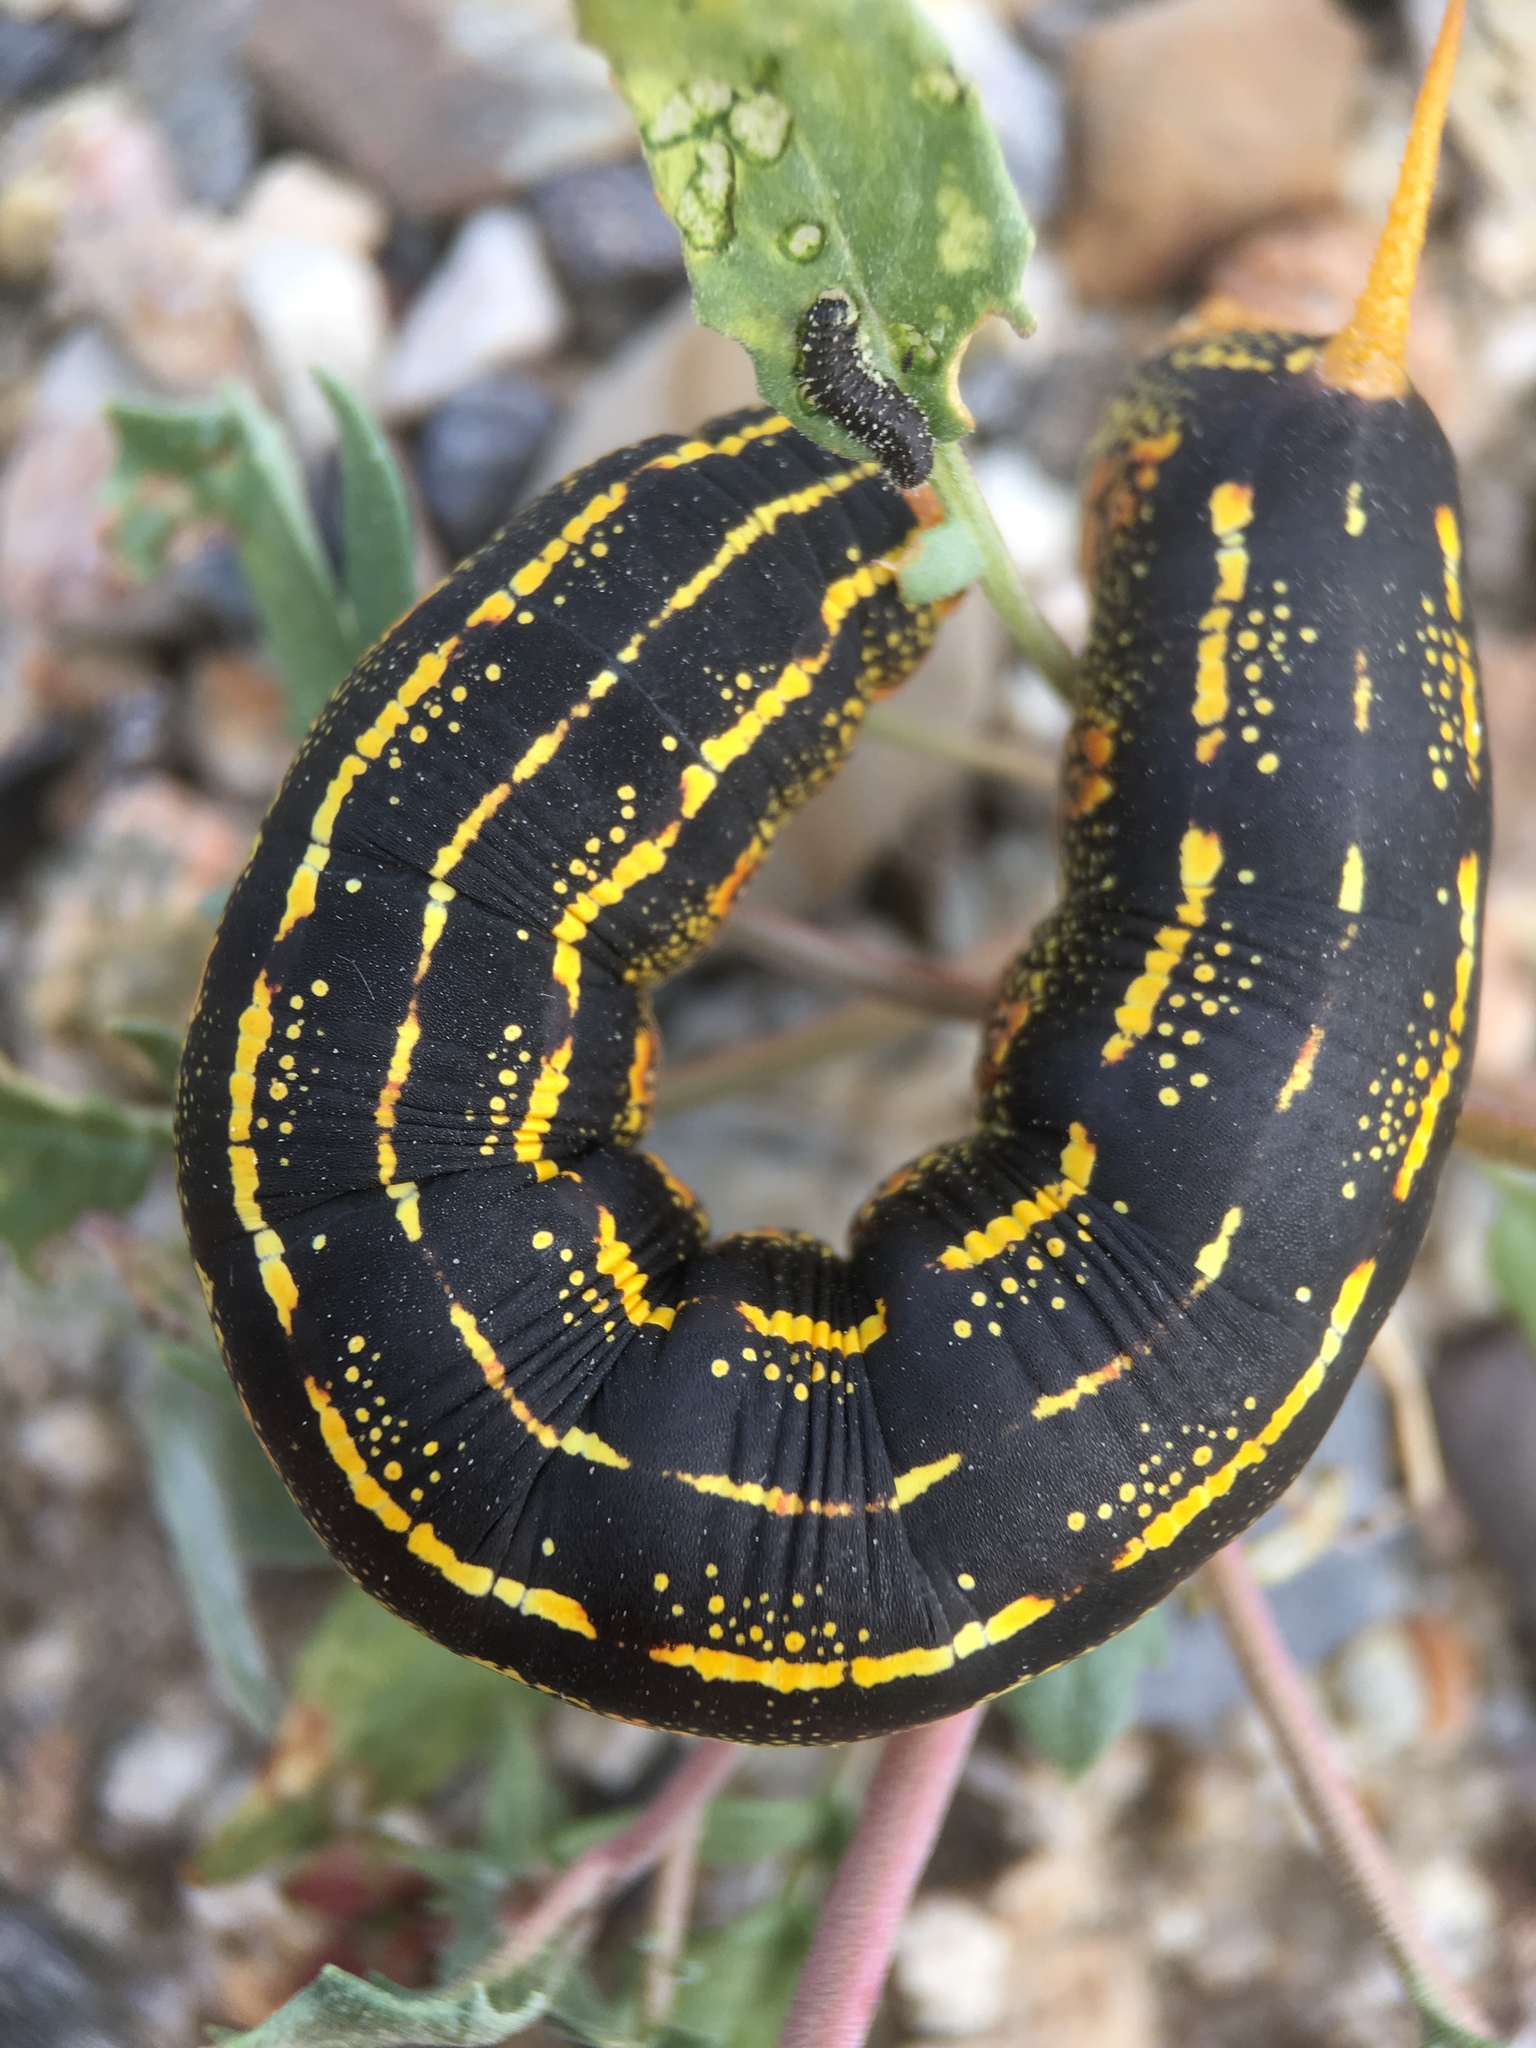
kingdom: Animalia
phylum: Arthropoda
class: Insecta
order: Lepidoptera
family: Sphingidae
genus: Hyles
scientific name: Hyles lineata
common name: White-lined sphinx
